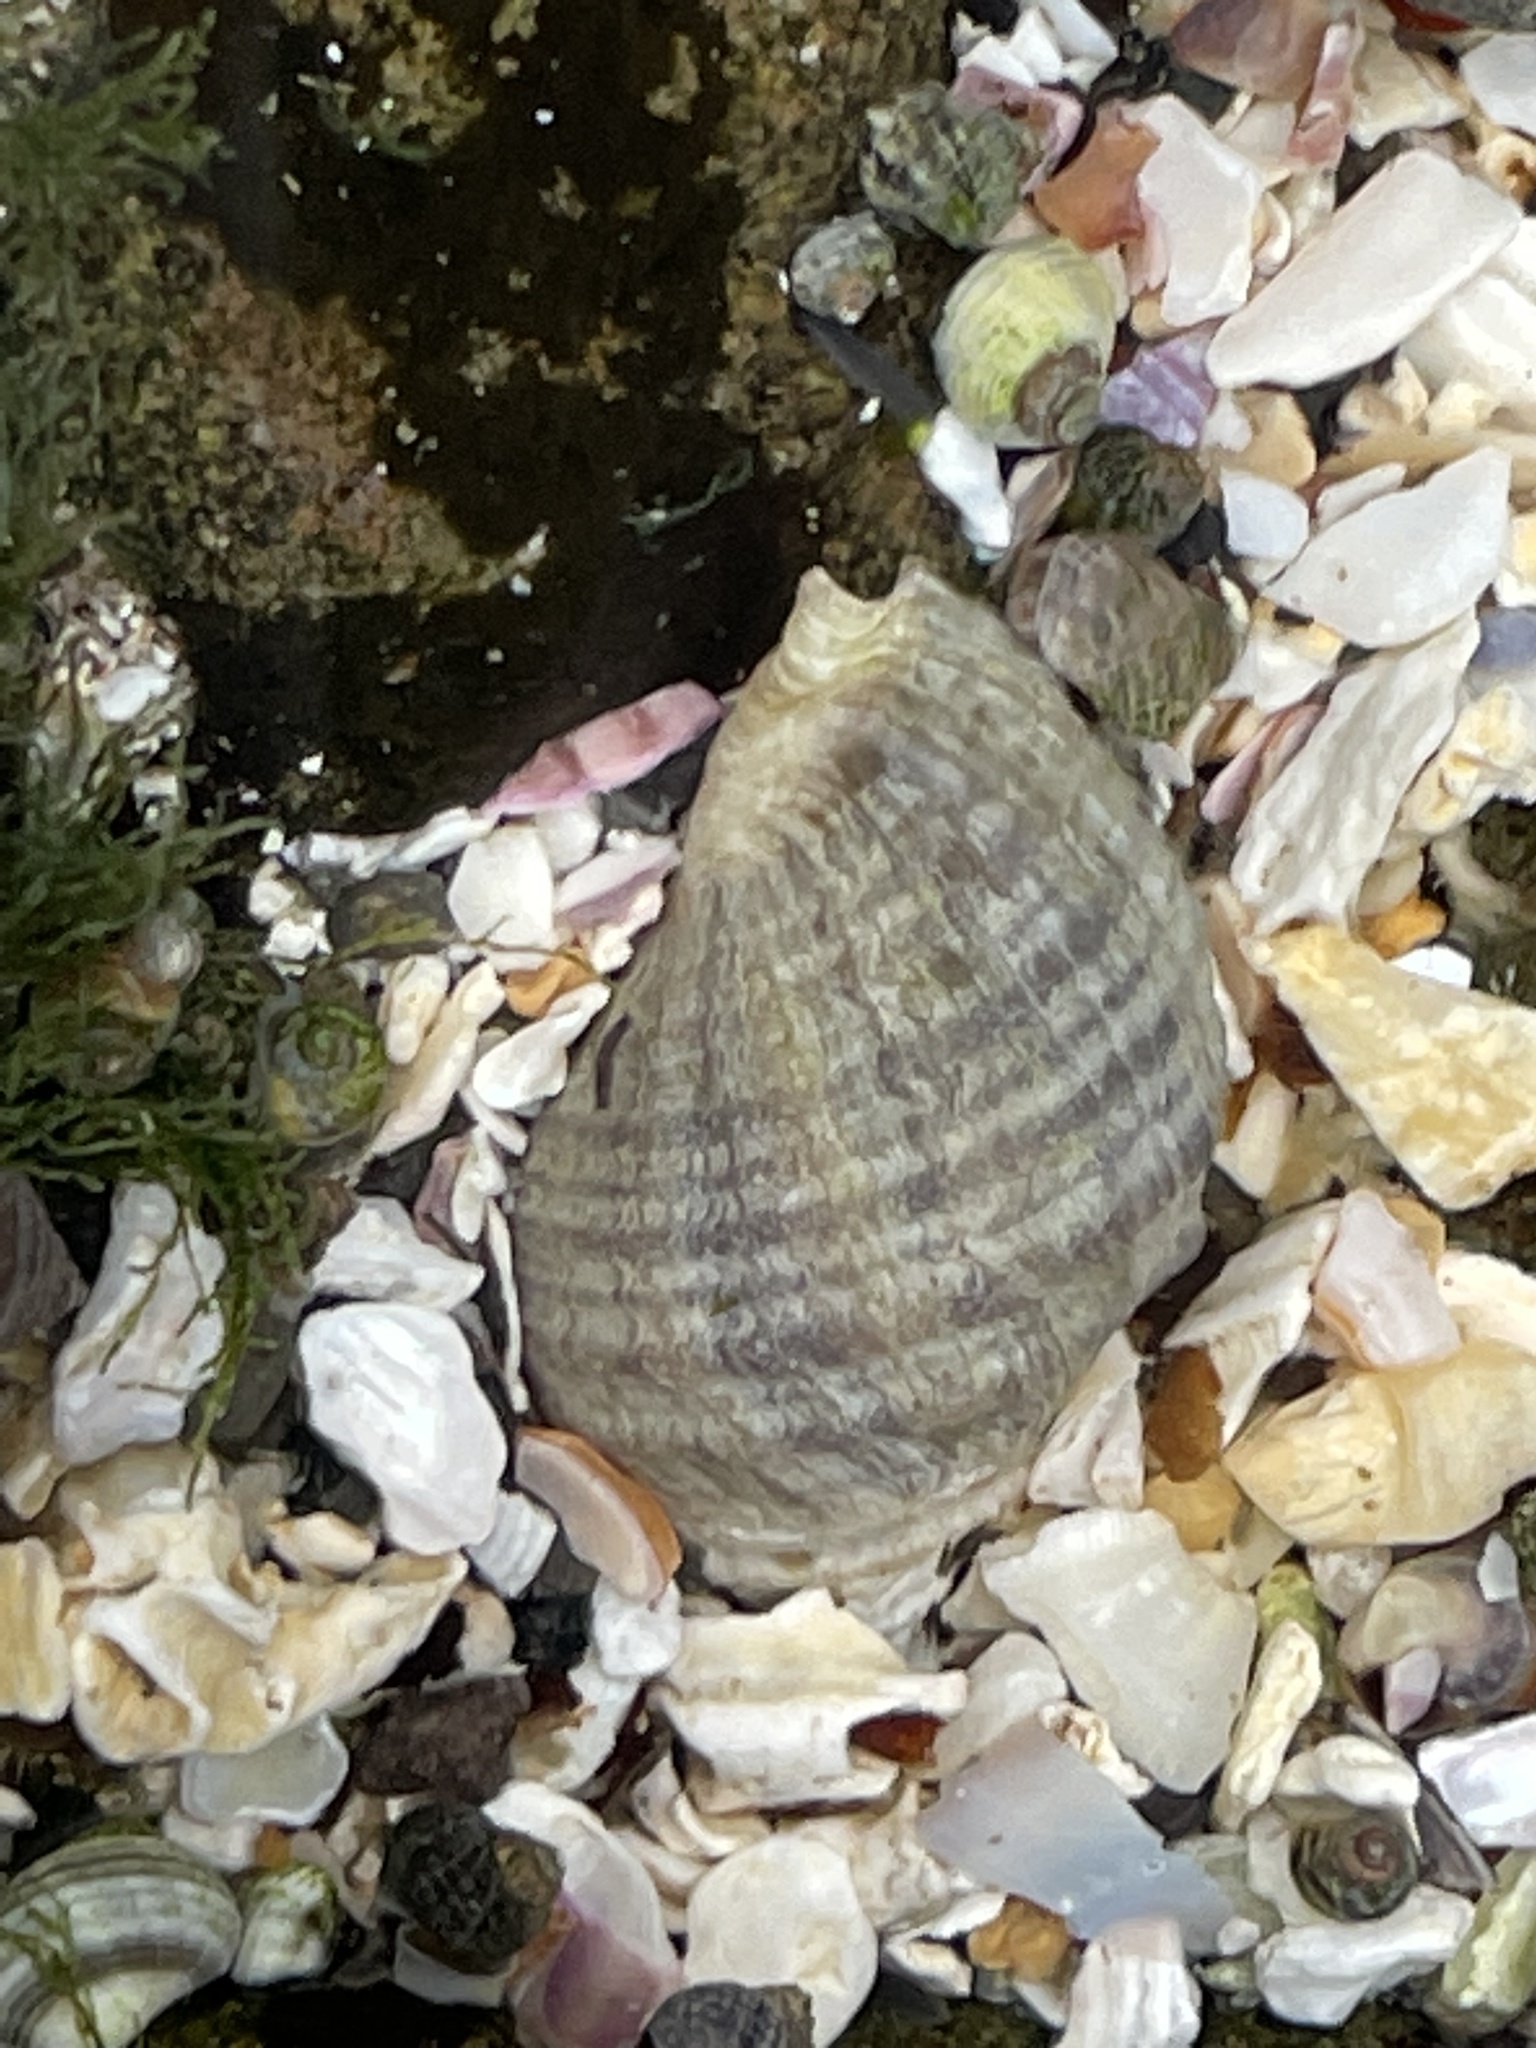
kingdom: Animalia
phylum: Mollusca
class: Gastropoda
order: Neogastropoda
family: Muricidae
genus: Nucella
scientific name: Nucella lapillus
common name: Dog whelk
